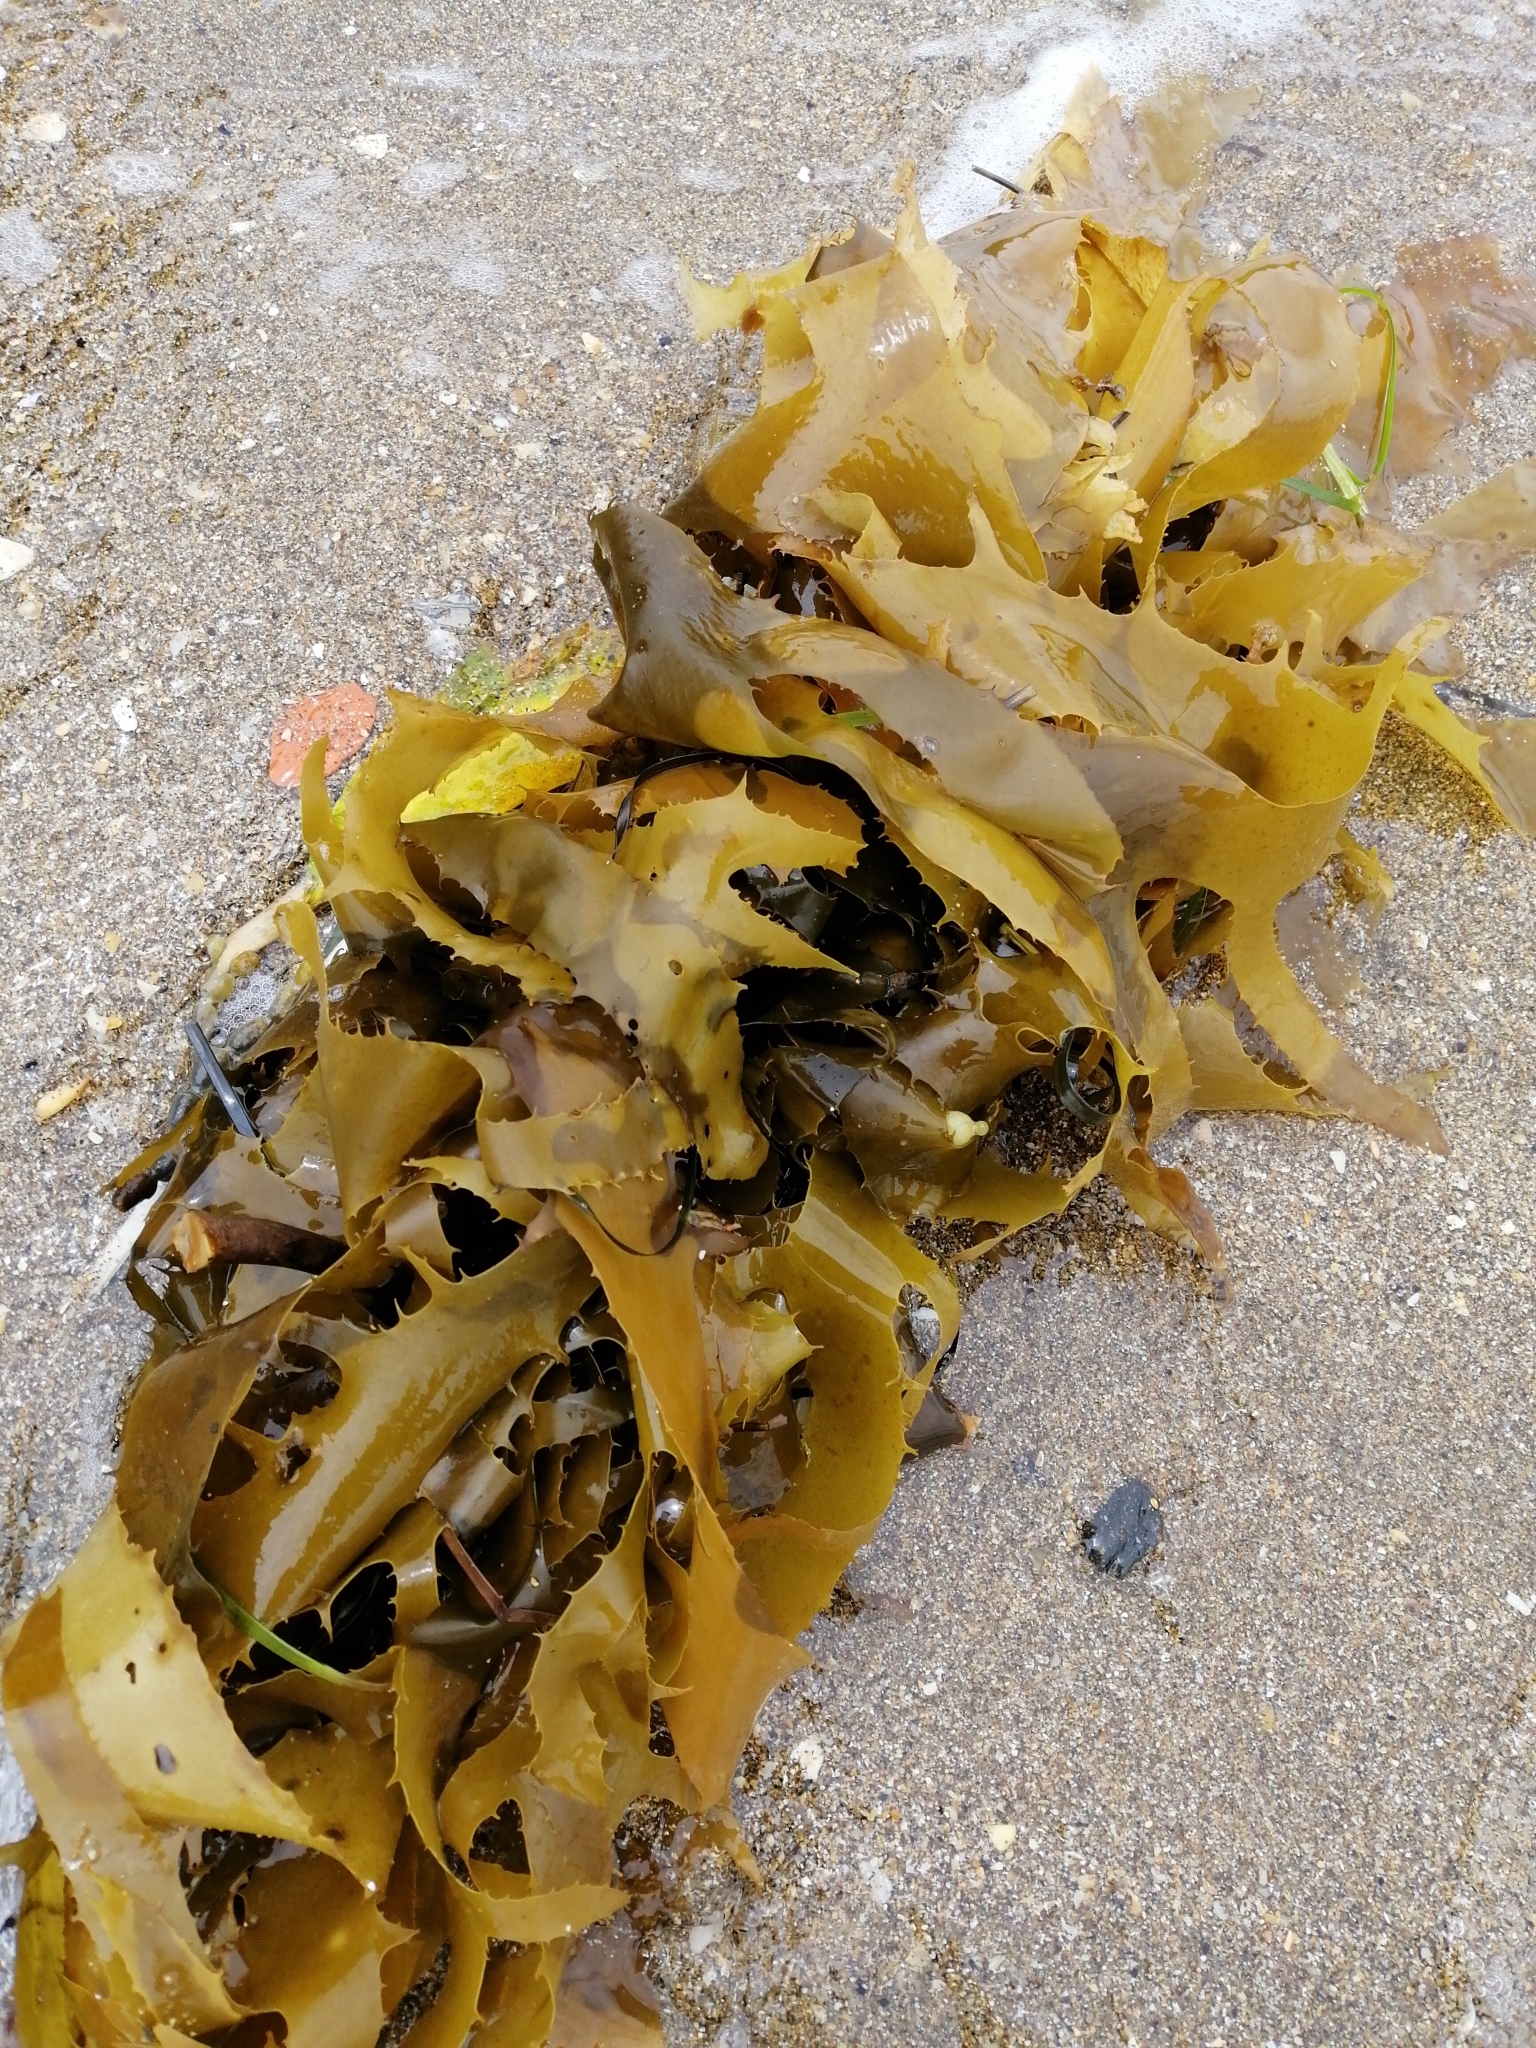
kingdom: Chromista
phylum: Ochrophyta
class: Phaeophyceae
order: Laminariales
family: Lessoniaceae
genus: Ecklonia
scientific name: Ecklonia radiata
